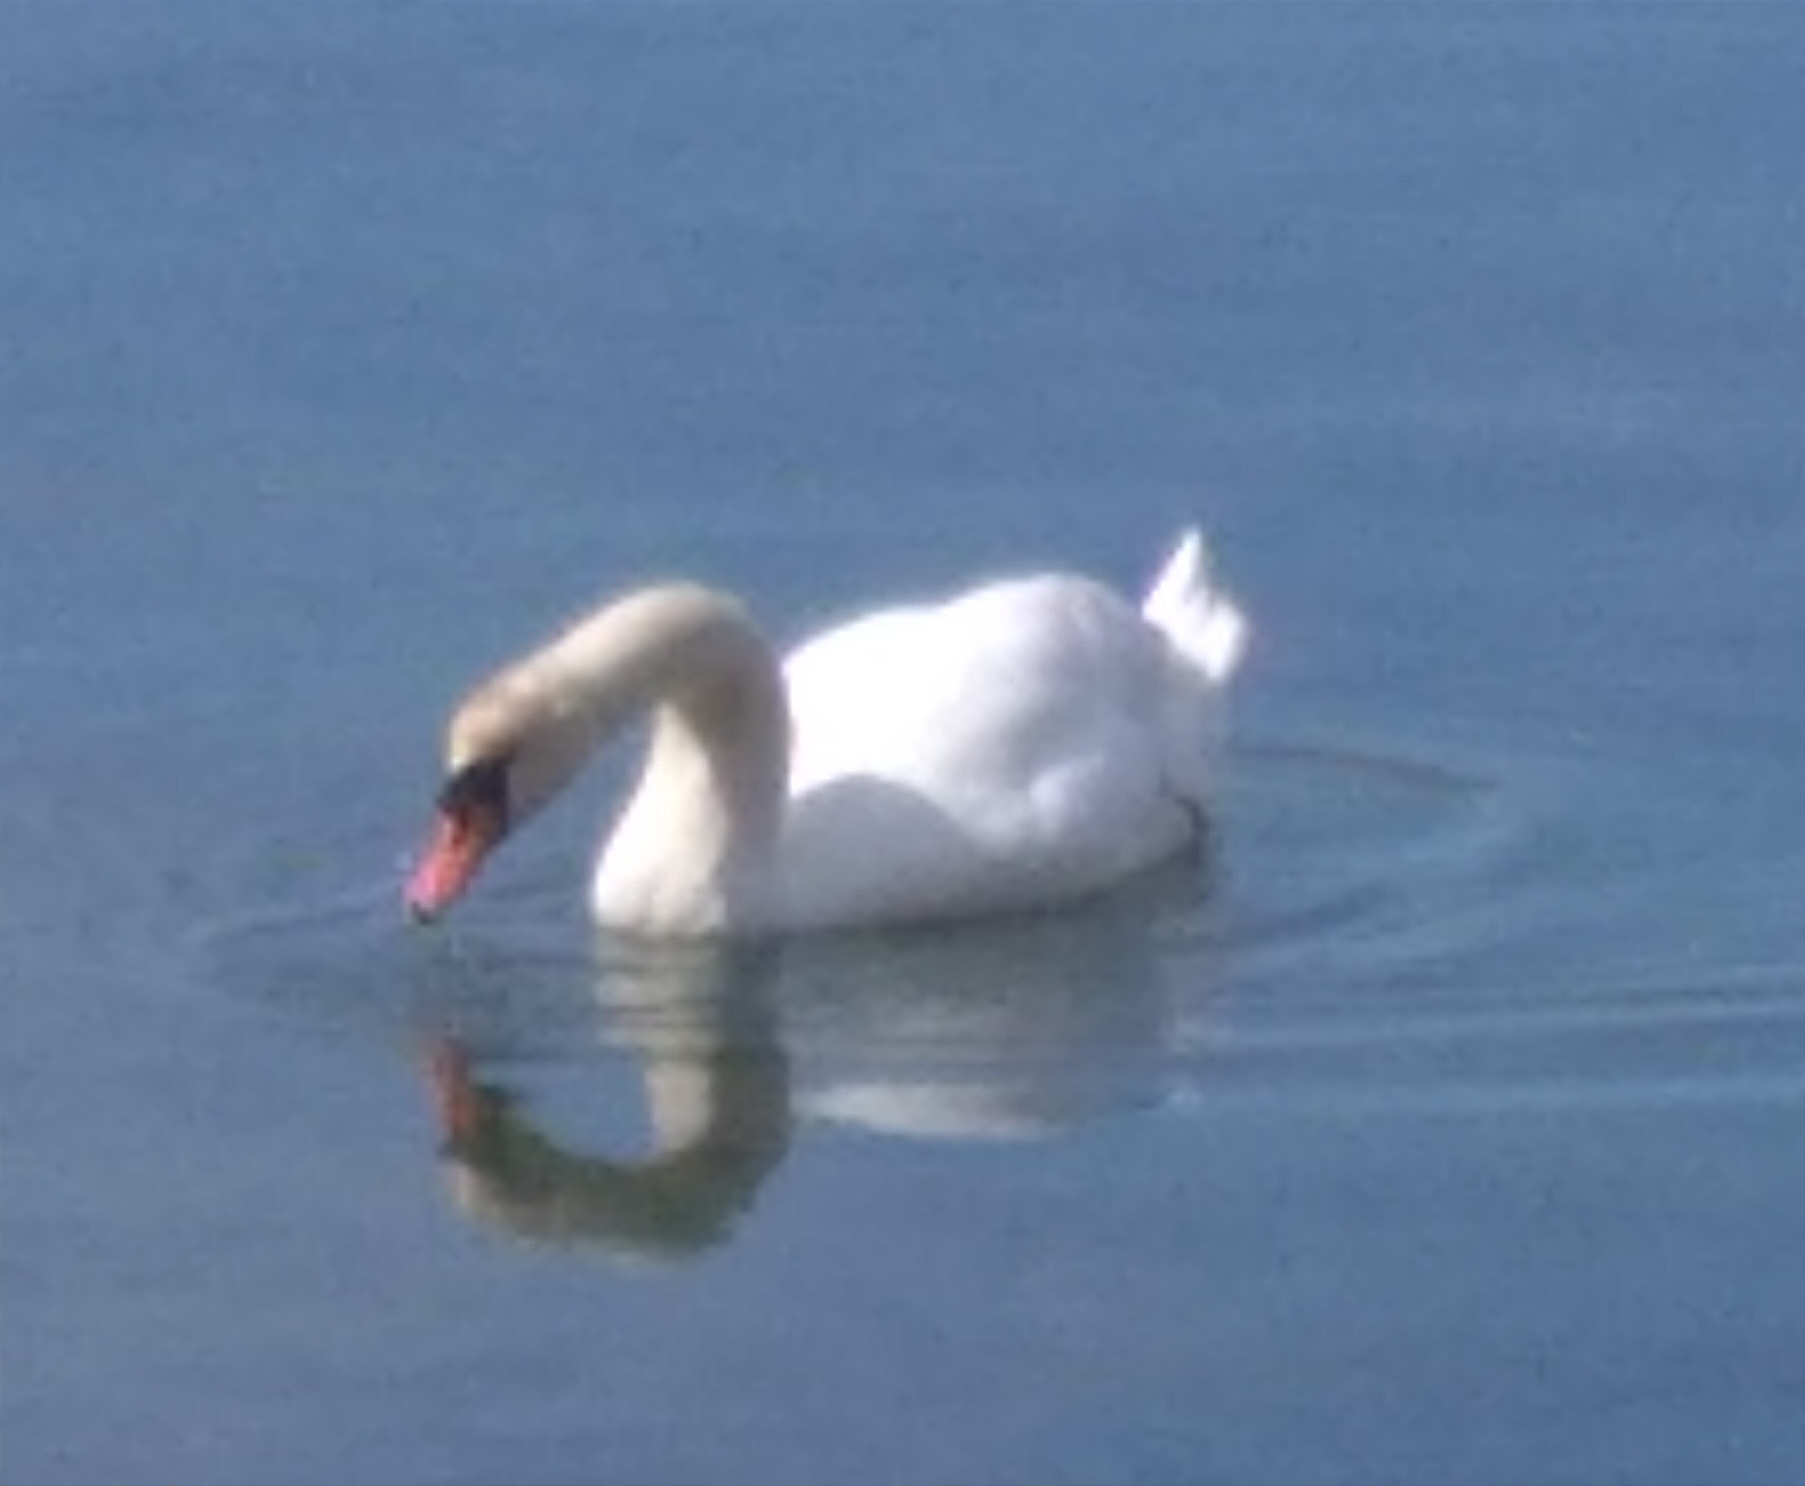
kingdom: Animalia
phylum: Chordata
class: Aves
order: Anseriformes
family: Anatidae
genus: Cygnus
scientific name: Cygnus olor
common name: Mute swan
